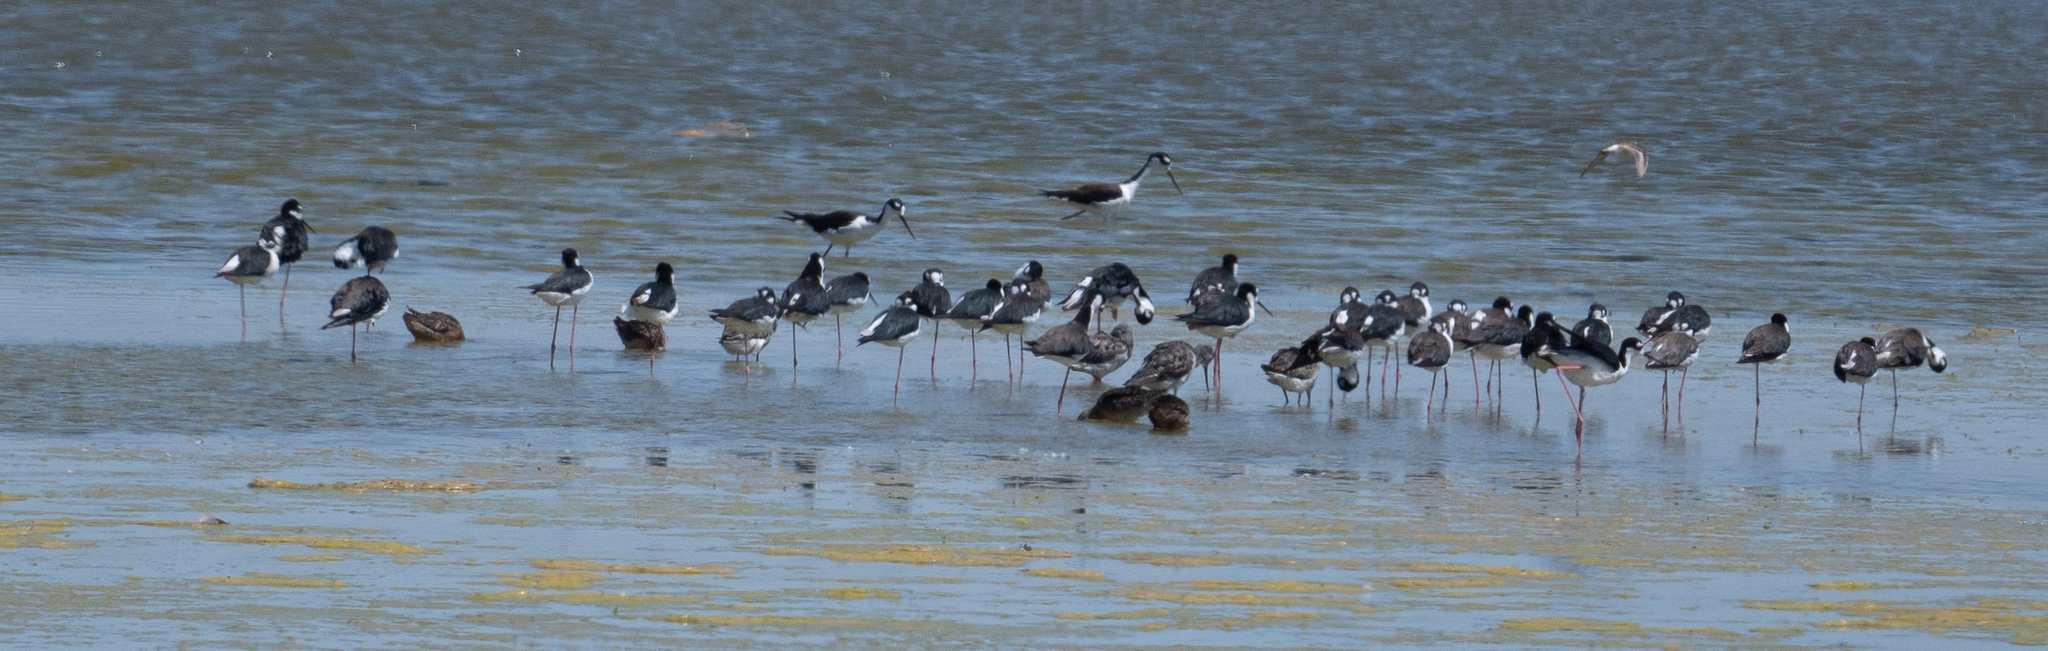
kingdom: Animalia
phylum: Chordata
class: Aves
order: Charadriiformes
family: Recurvirostridae
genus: Himantopus
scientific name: Himantopus mexicanus
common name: Black-necked stilt
